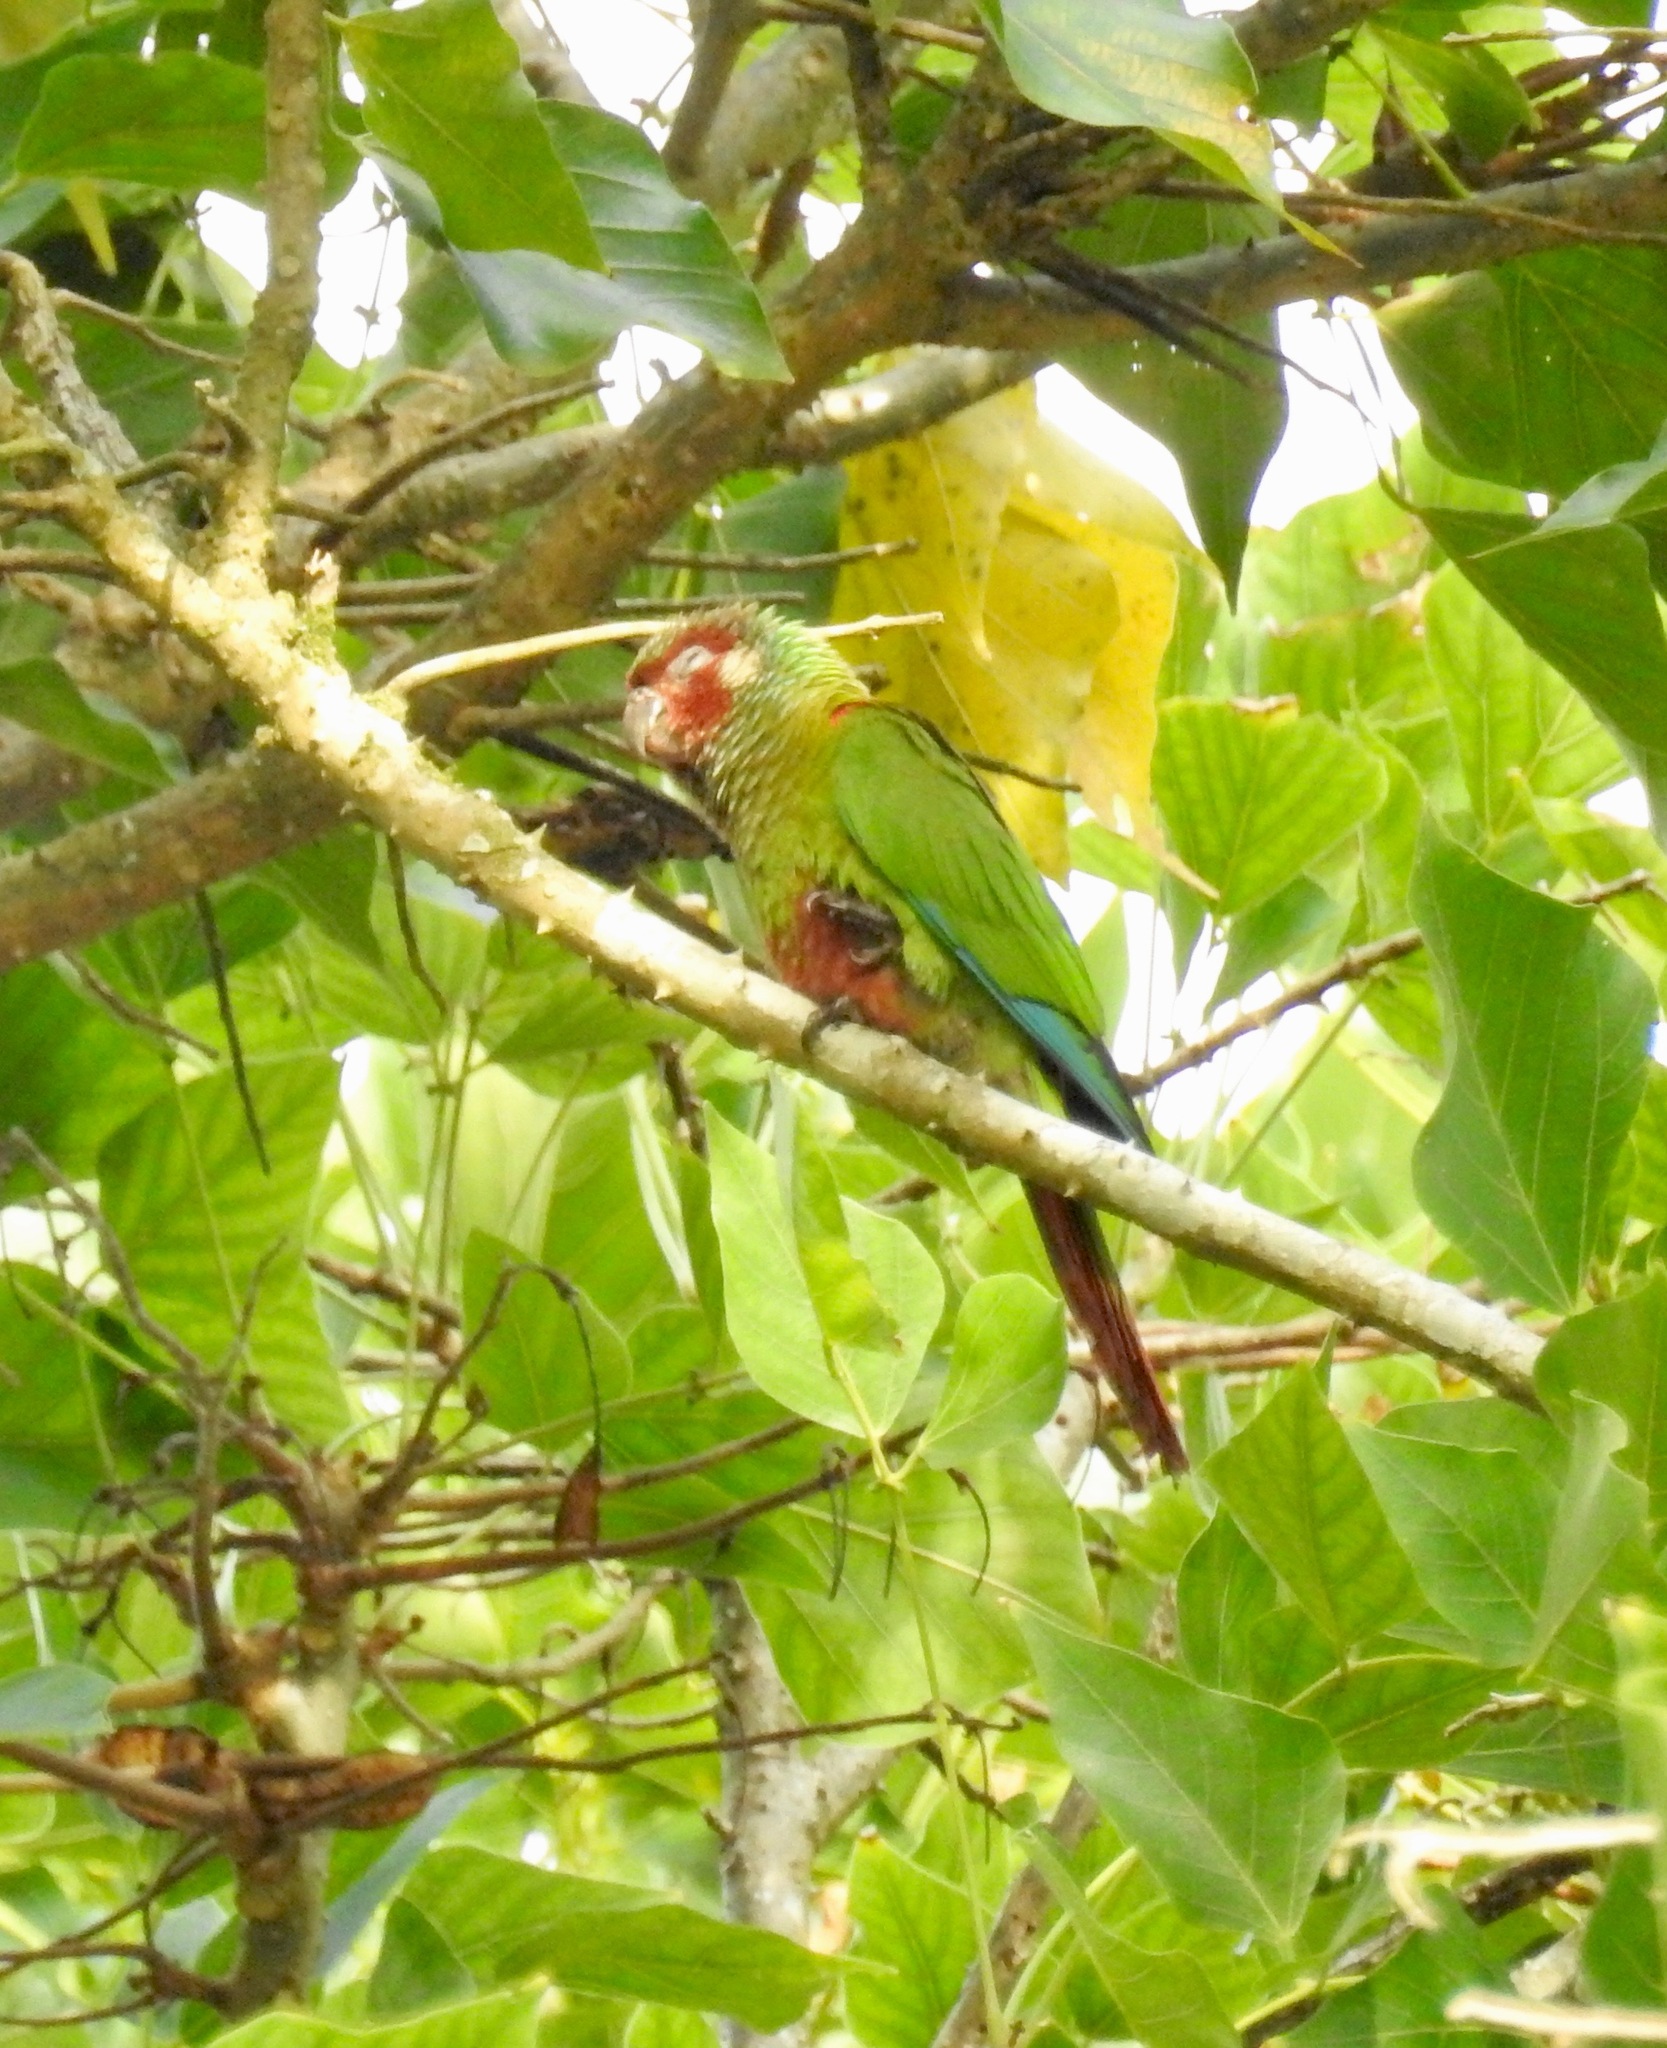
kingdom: Animalia
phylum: Chordata
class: Aves
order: Psittaciformes
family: Psittacidae
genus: Pyrrhura
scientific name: Pyrrhura leucotis
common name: White-eared parakeet
